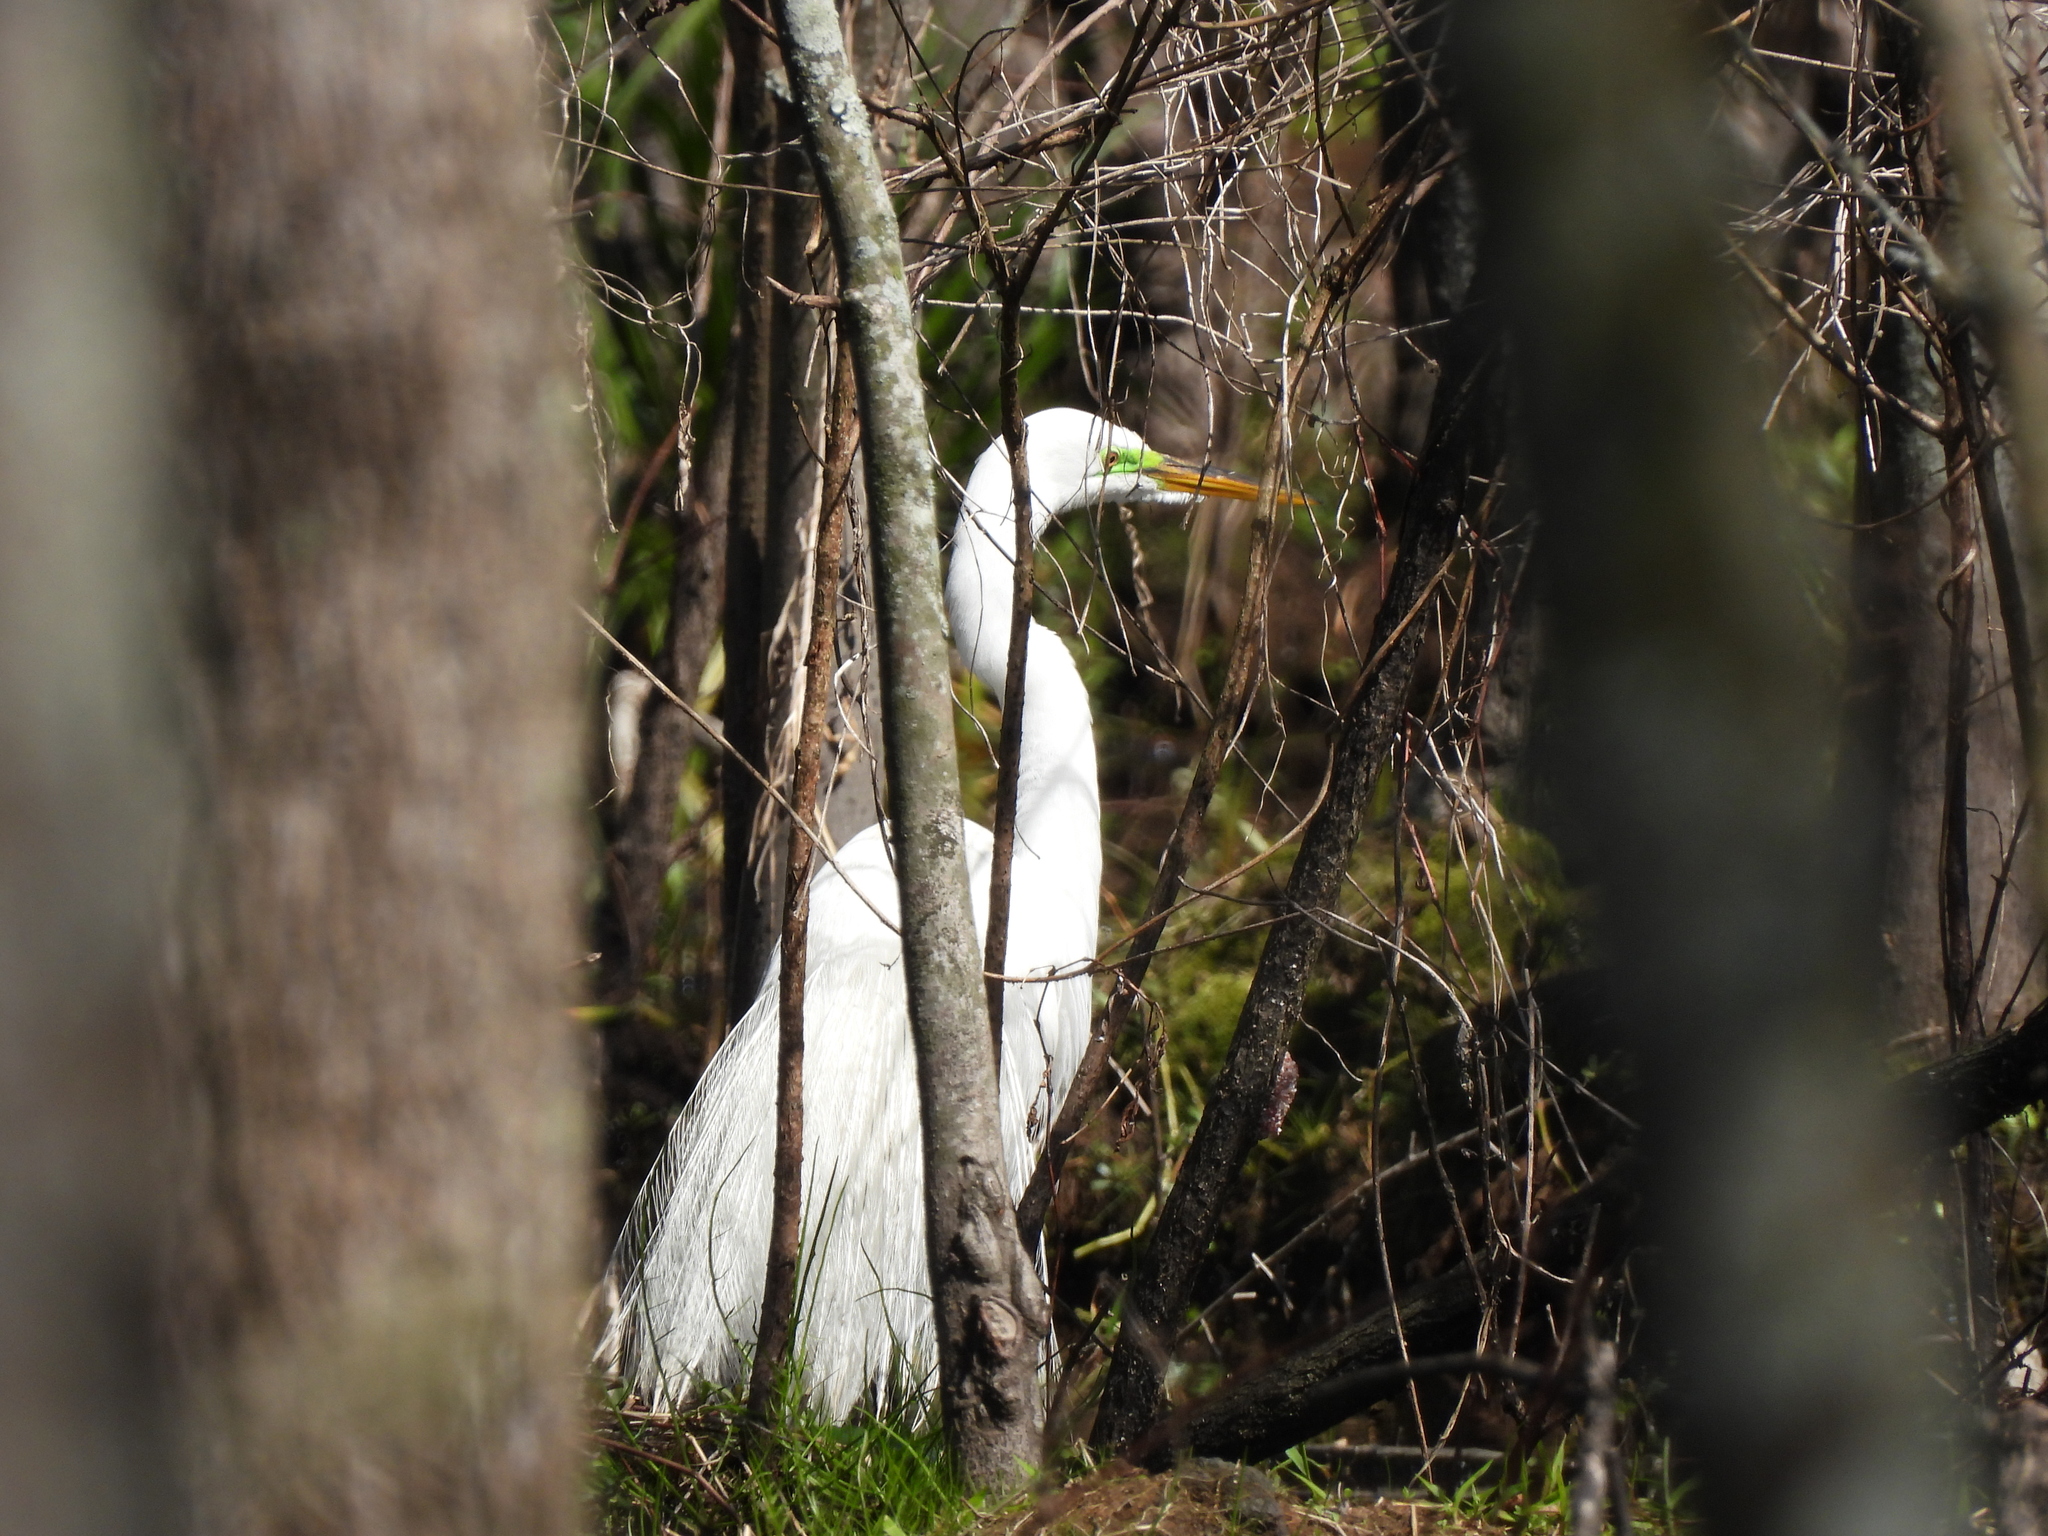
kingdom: Animalia
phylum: Chordata
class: Aves
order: Pelecaniformes
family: Ardeidae
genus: Ardea
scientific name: Ardea alba
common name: Great egret
